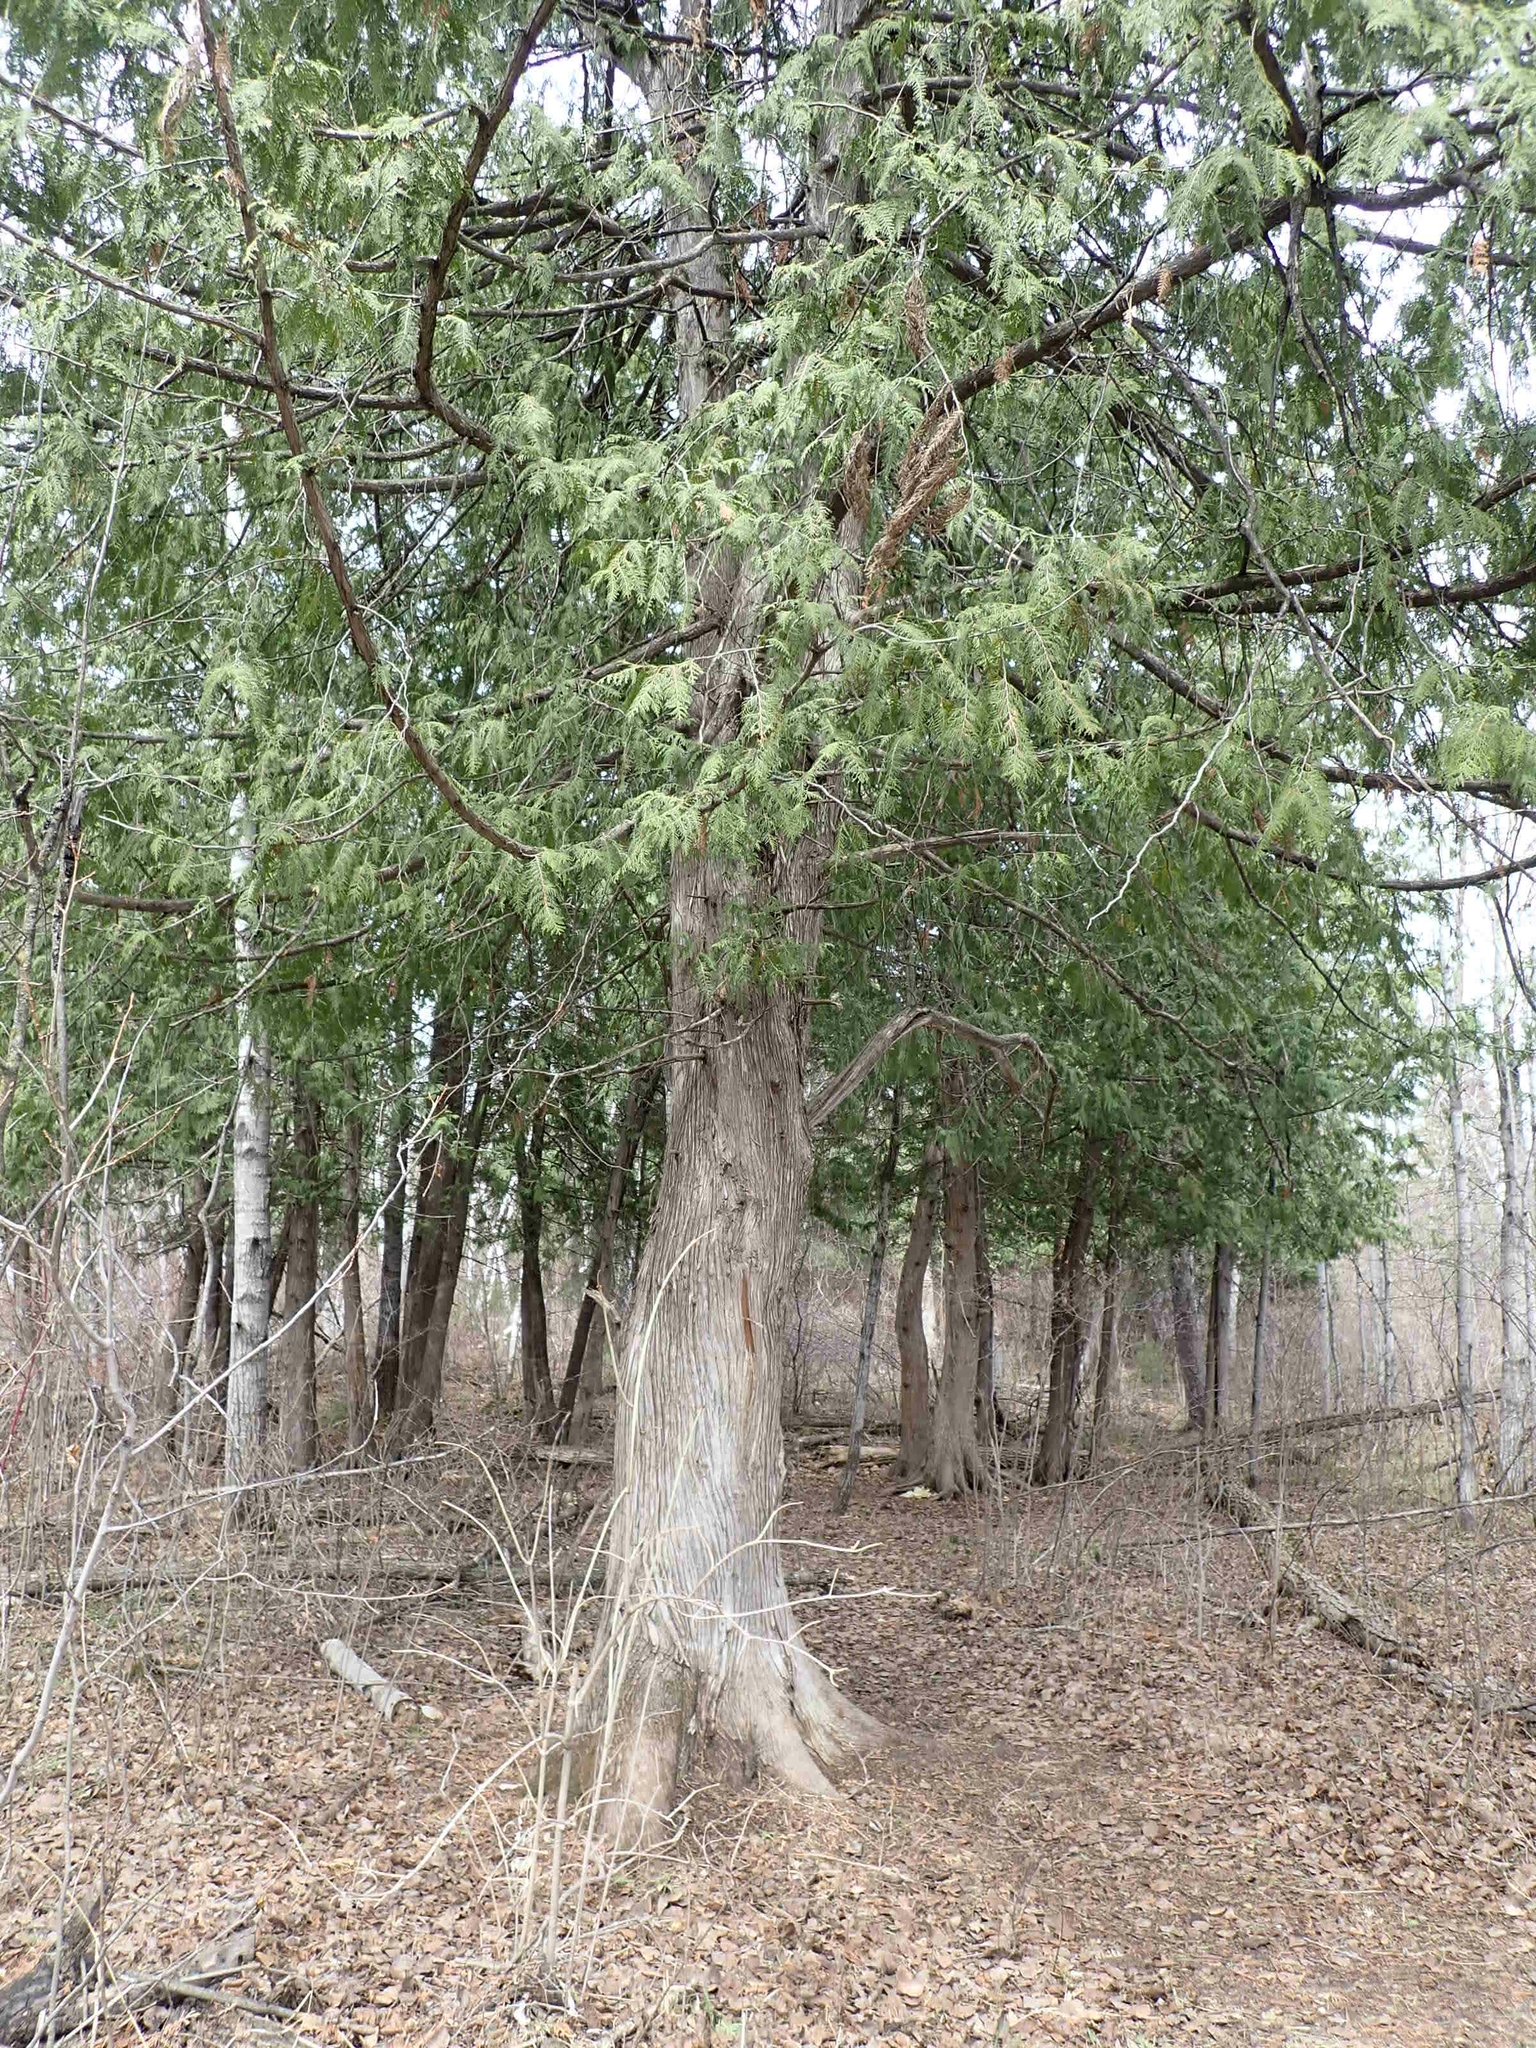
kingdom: Plantae
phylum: Tracheophyta
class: Pinopsida
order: Pinales
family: Cupressaceae
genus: Thuja
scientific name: Thuja occidentalis
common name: Northern white-cedar
